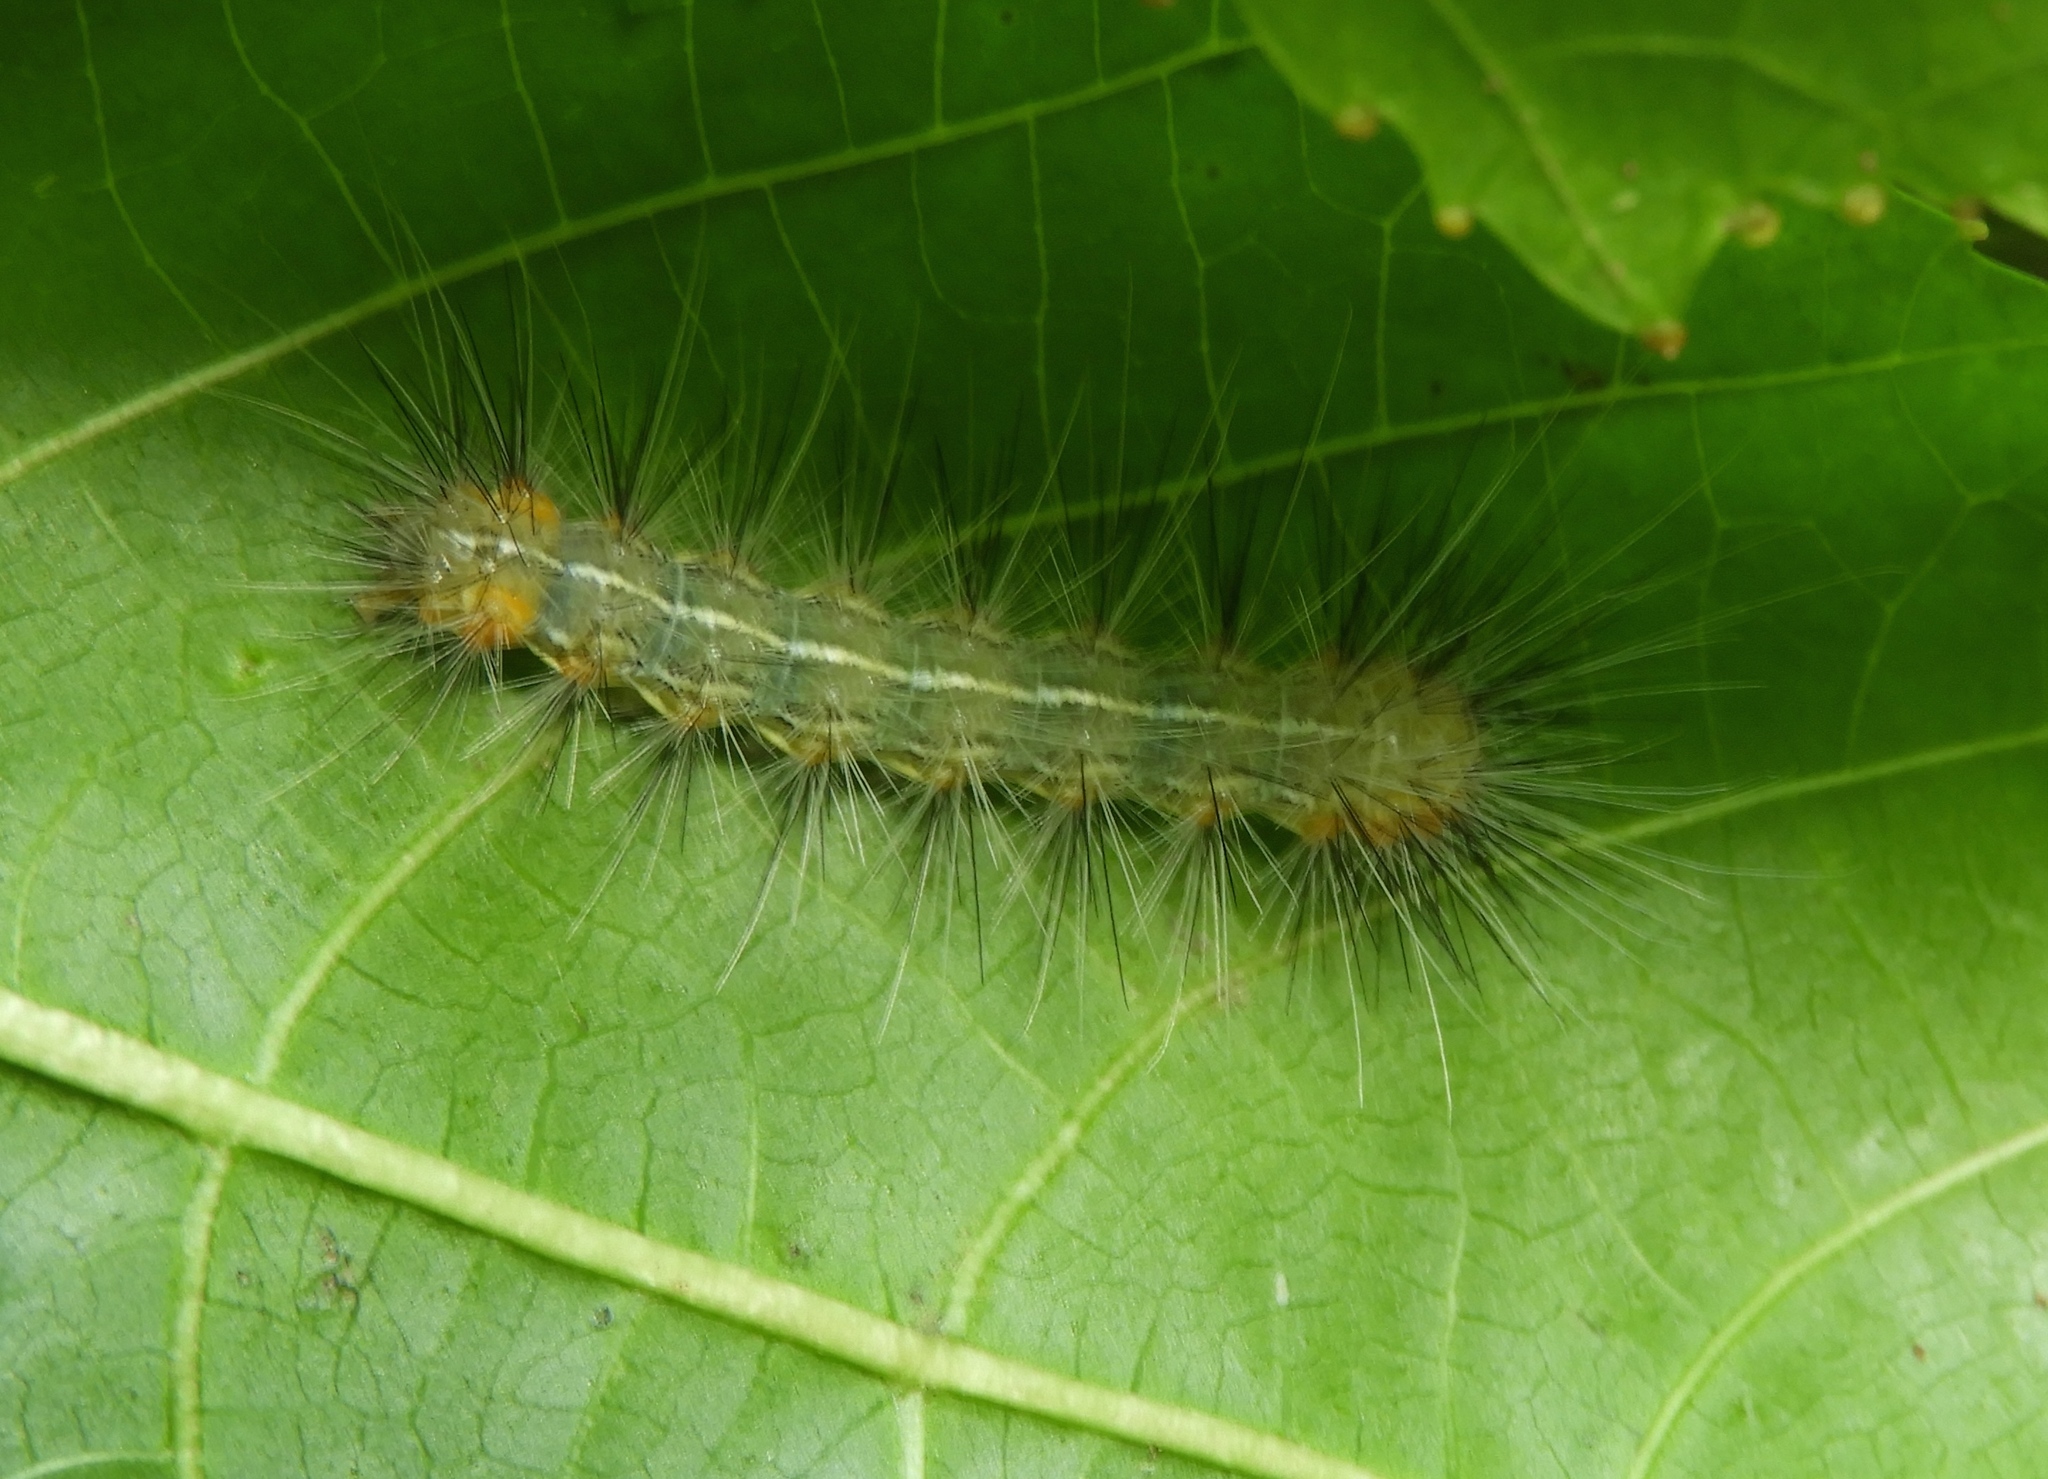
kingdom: Animalia
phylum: Arthropoda
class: Insecta
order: Lepidoptera
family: Erebidae
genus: Hypercompe
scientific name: Hypercompe suffusa
